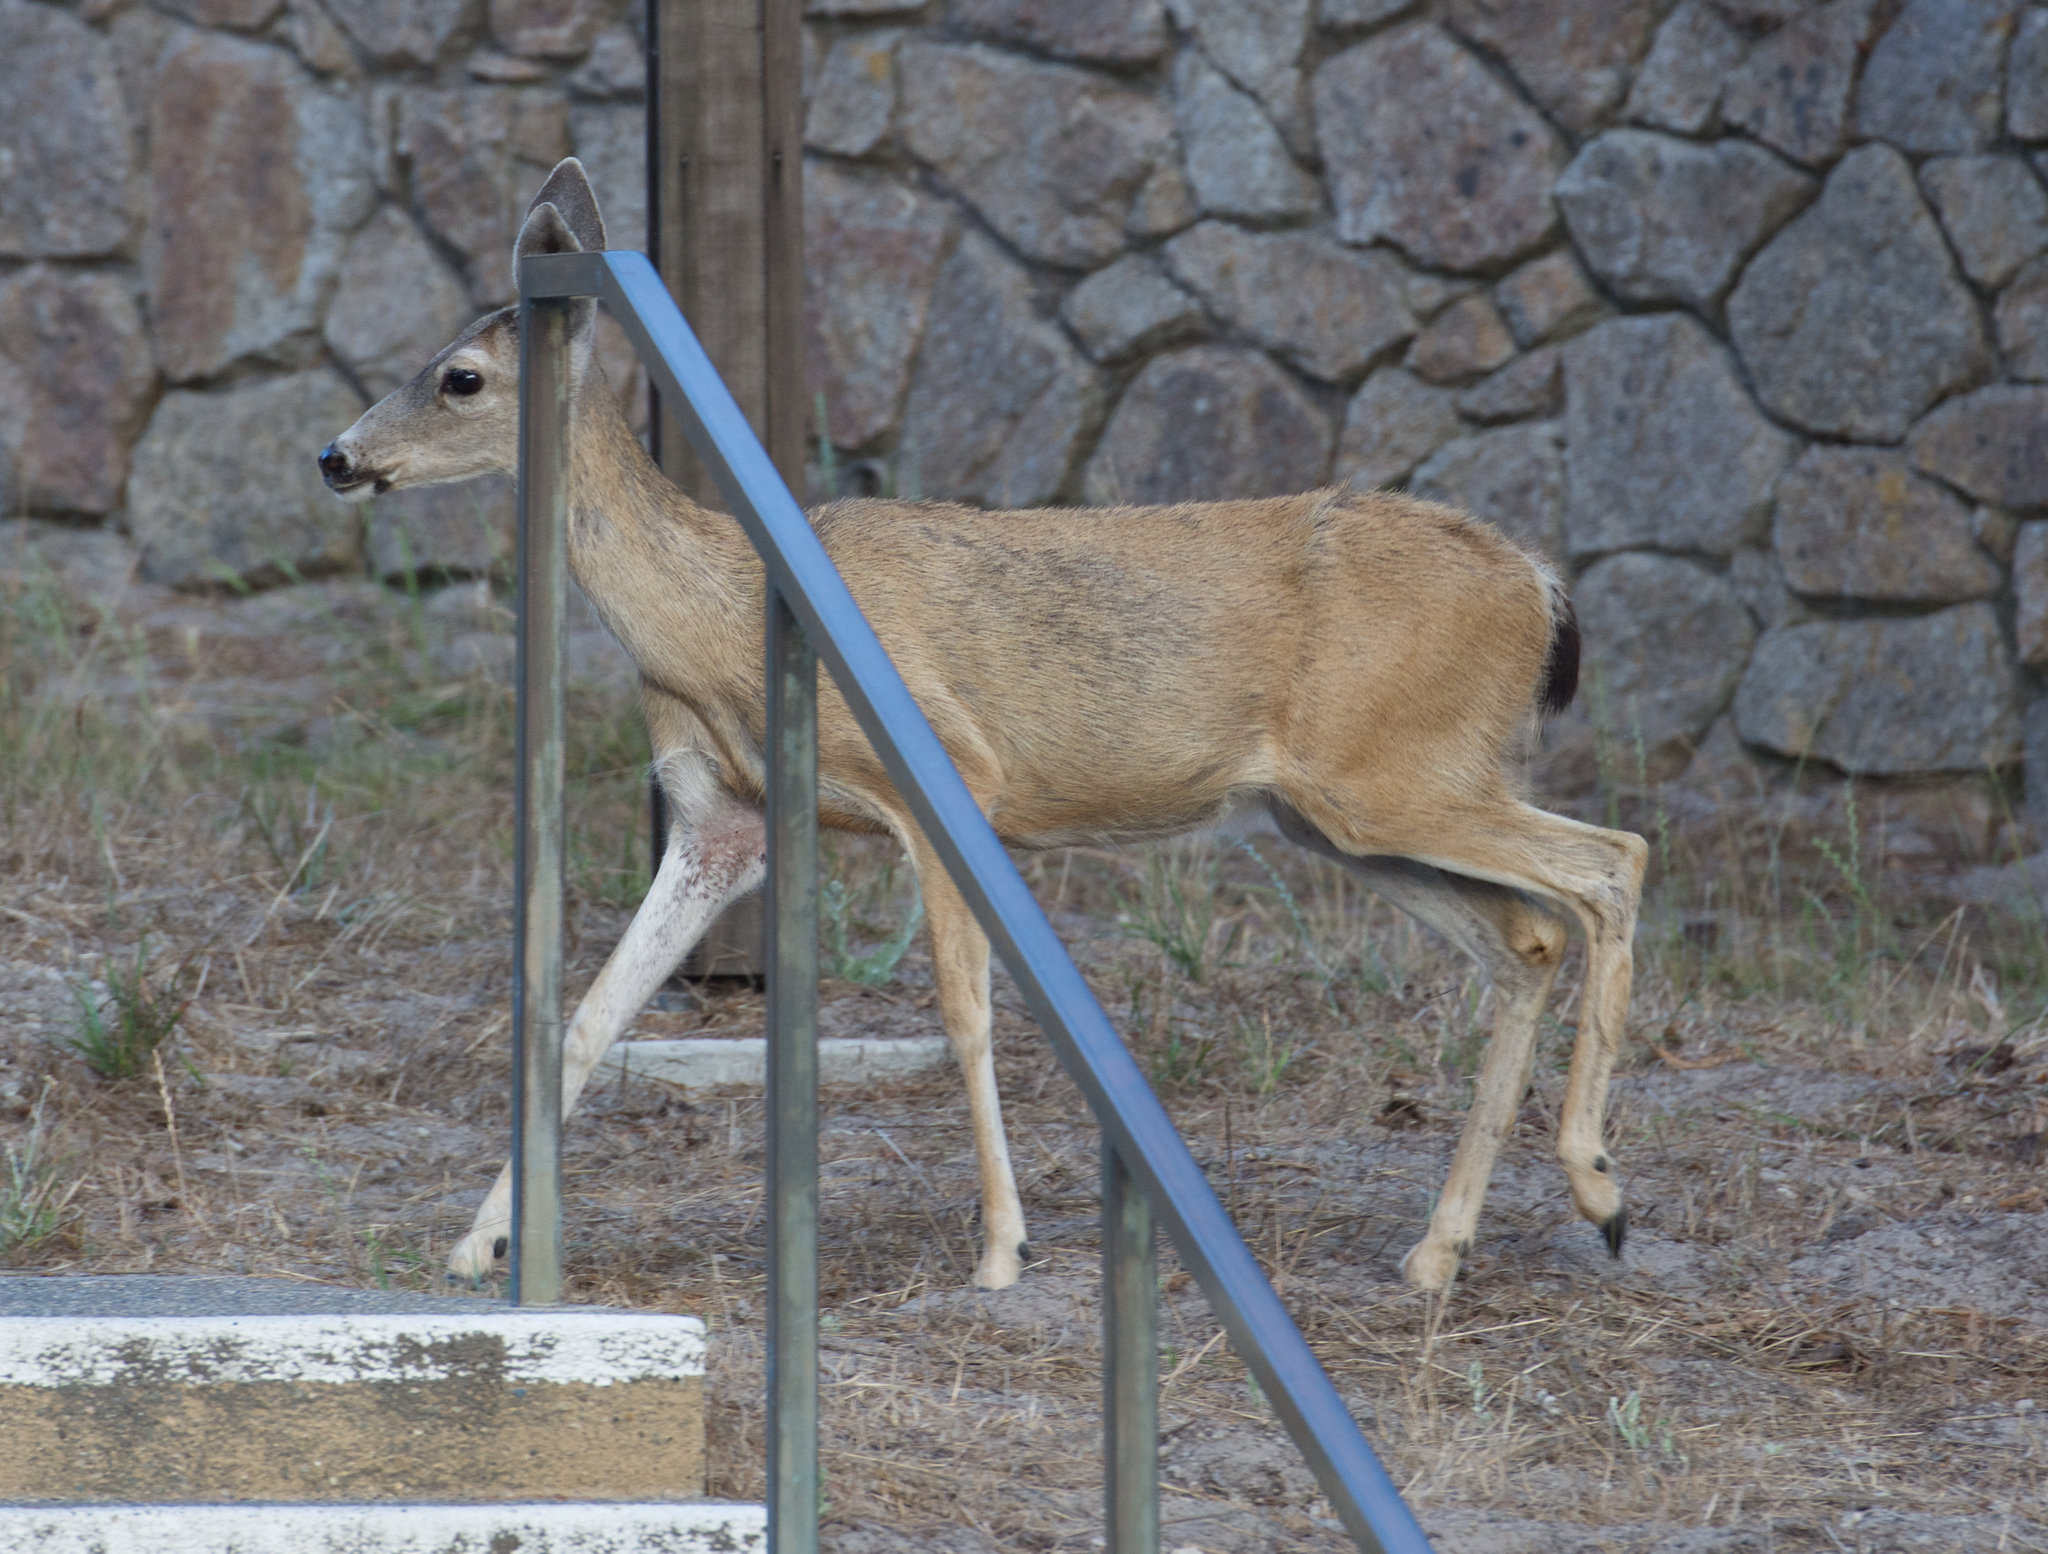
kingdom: Animalia
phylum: Chordata
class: Mammalia
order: Artiodactyla
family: Cervidae
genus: Odocoileus
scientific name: Odocoileus hemionus
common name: Mule deer
